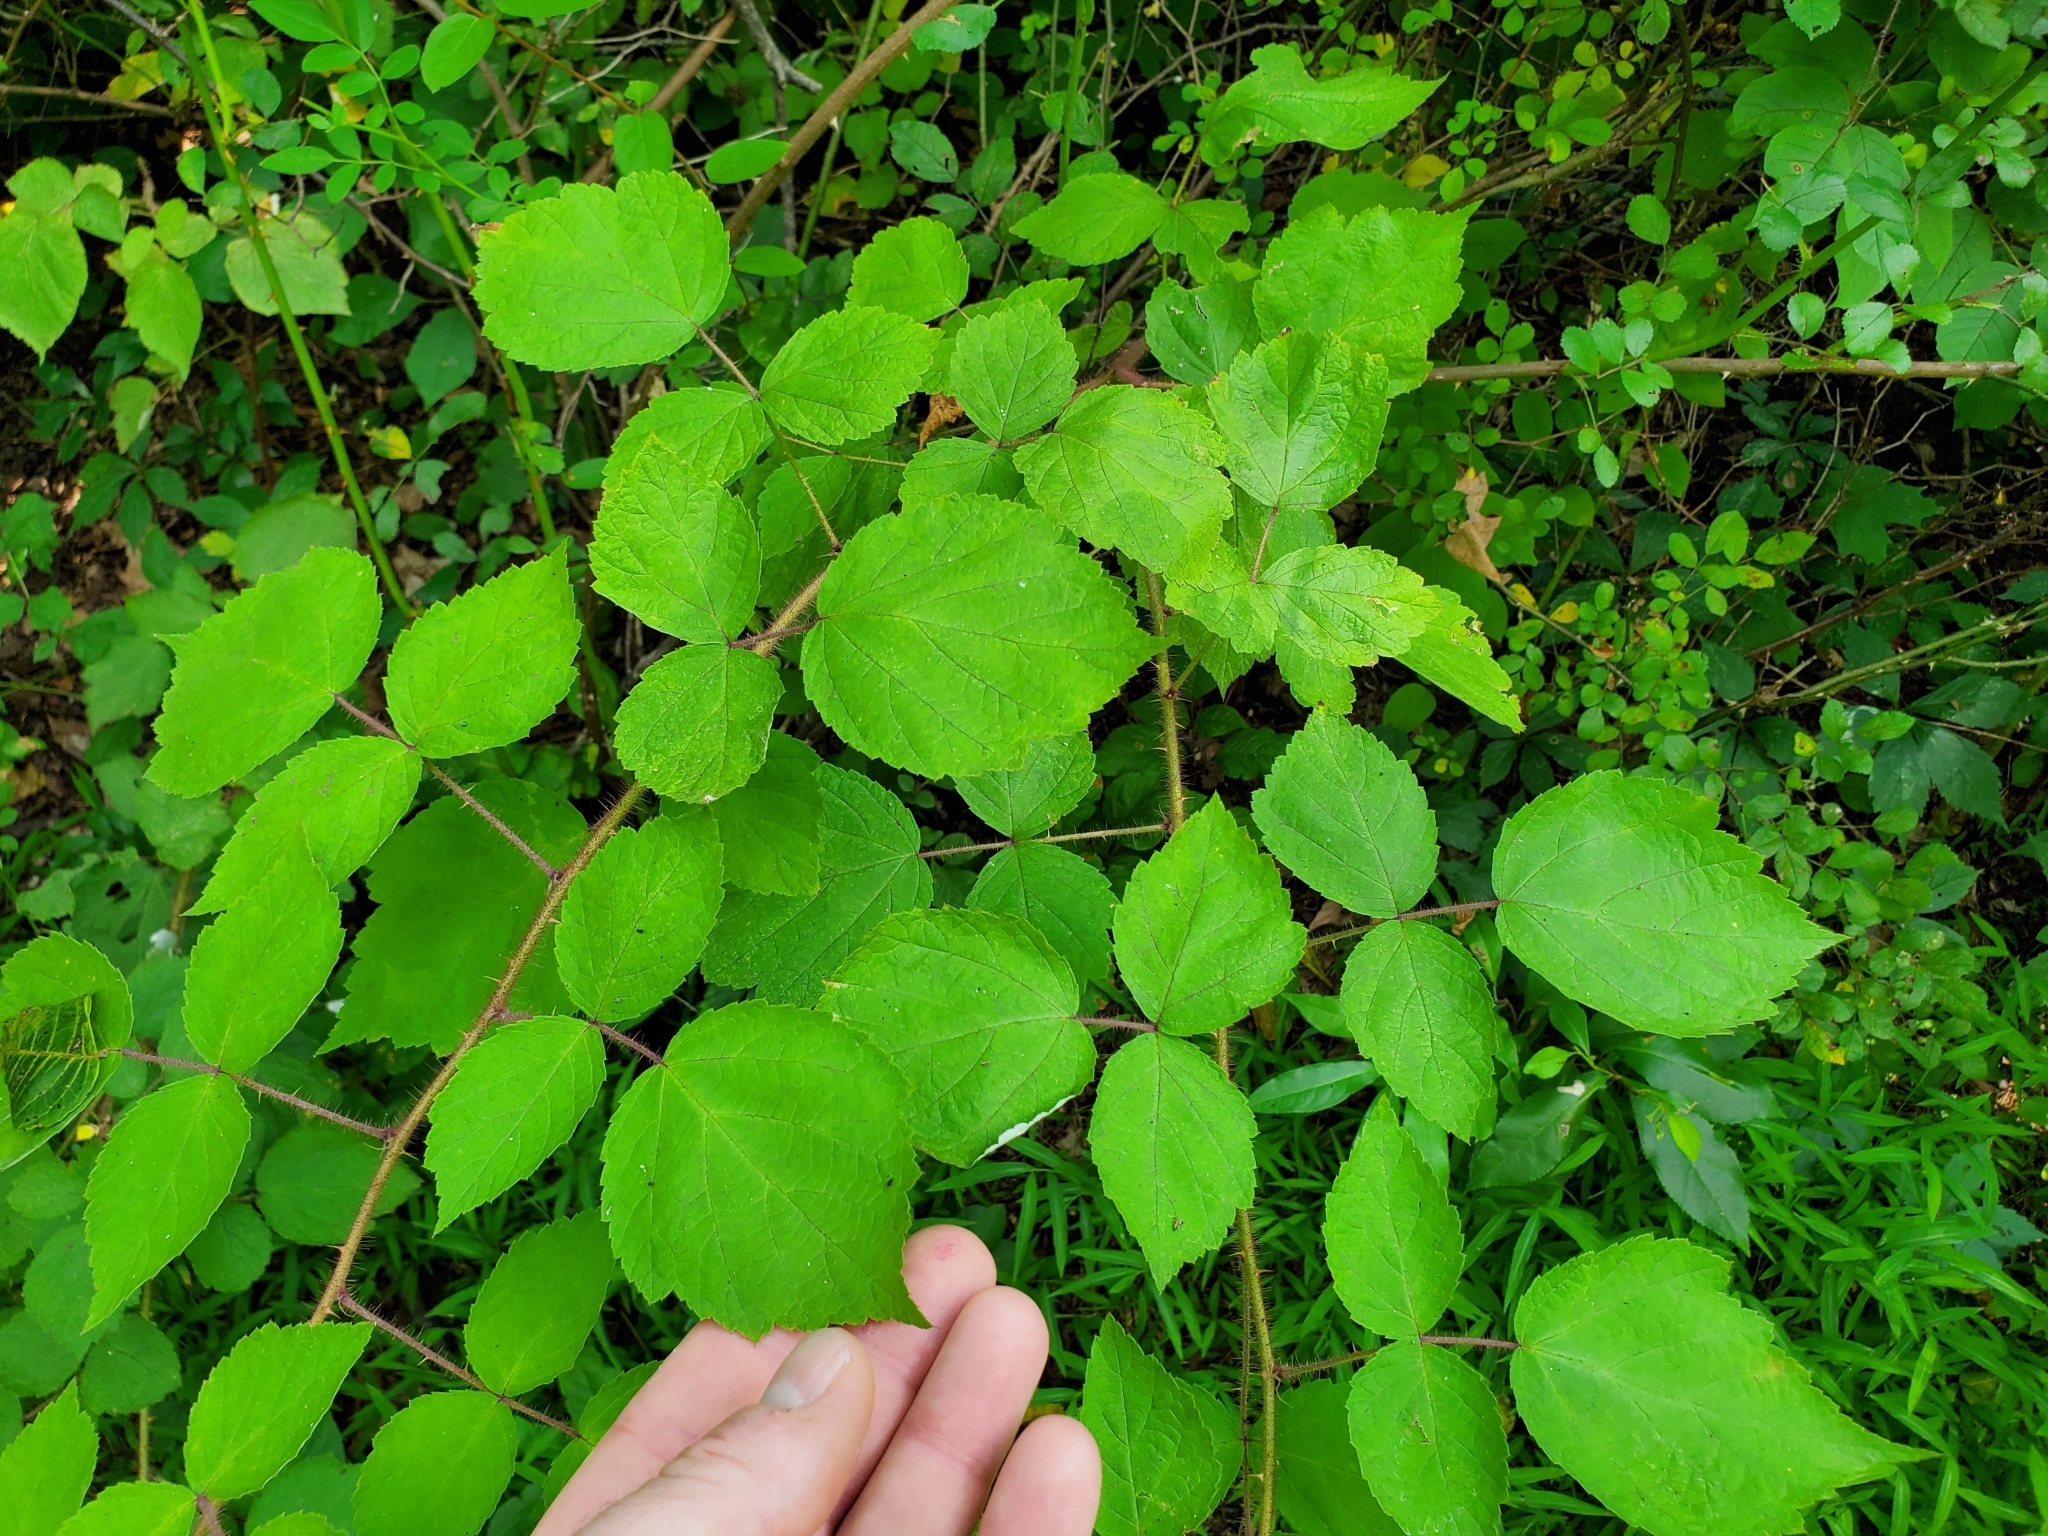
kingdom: Plantae
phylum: Tracheophyta
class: Magnoliopsida
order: Rosales
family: Rosaceae
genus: Rubus
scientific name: Rubus phoenicolasius
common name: Japanese wineberry
